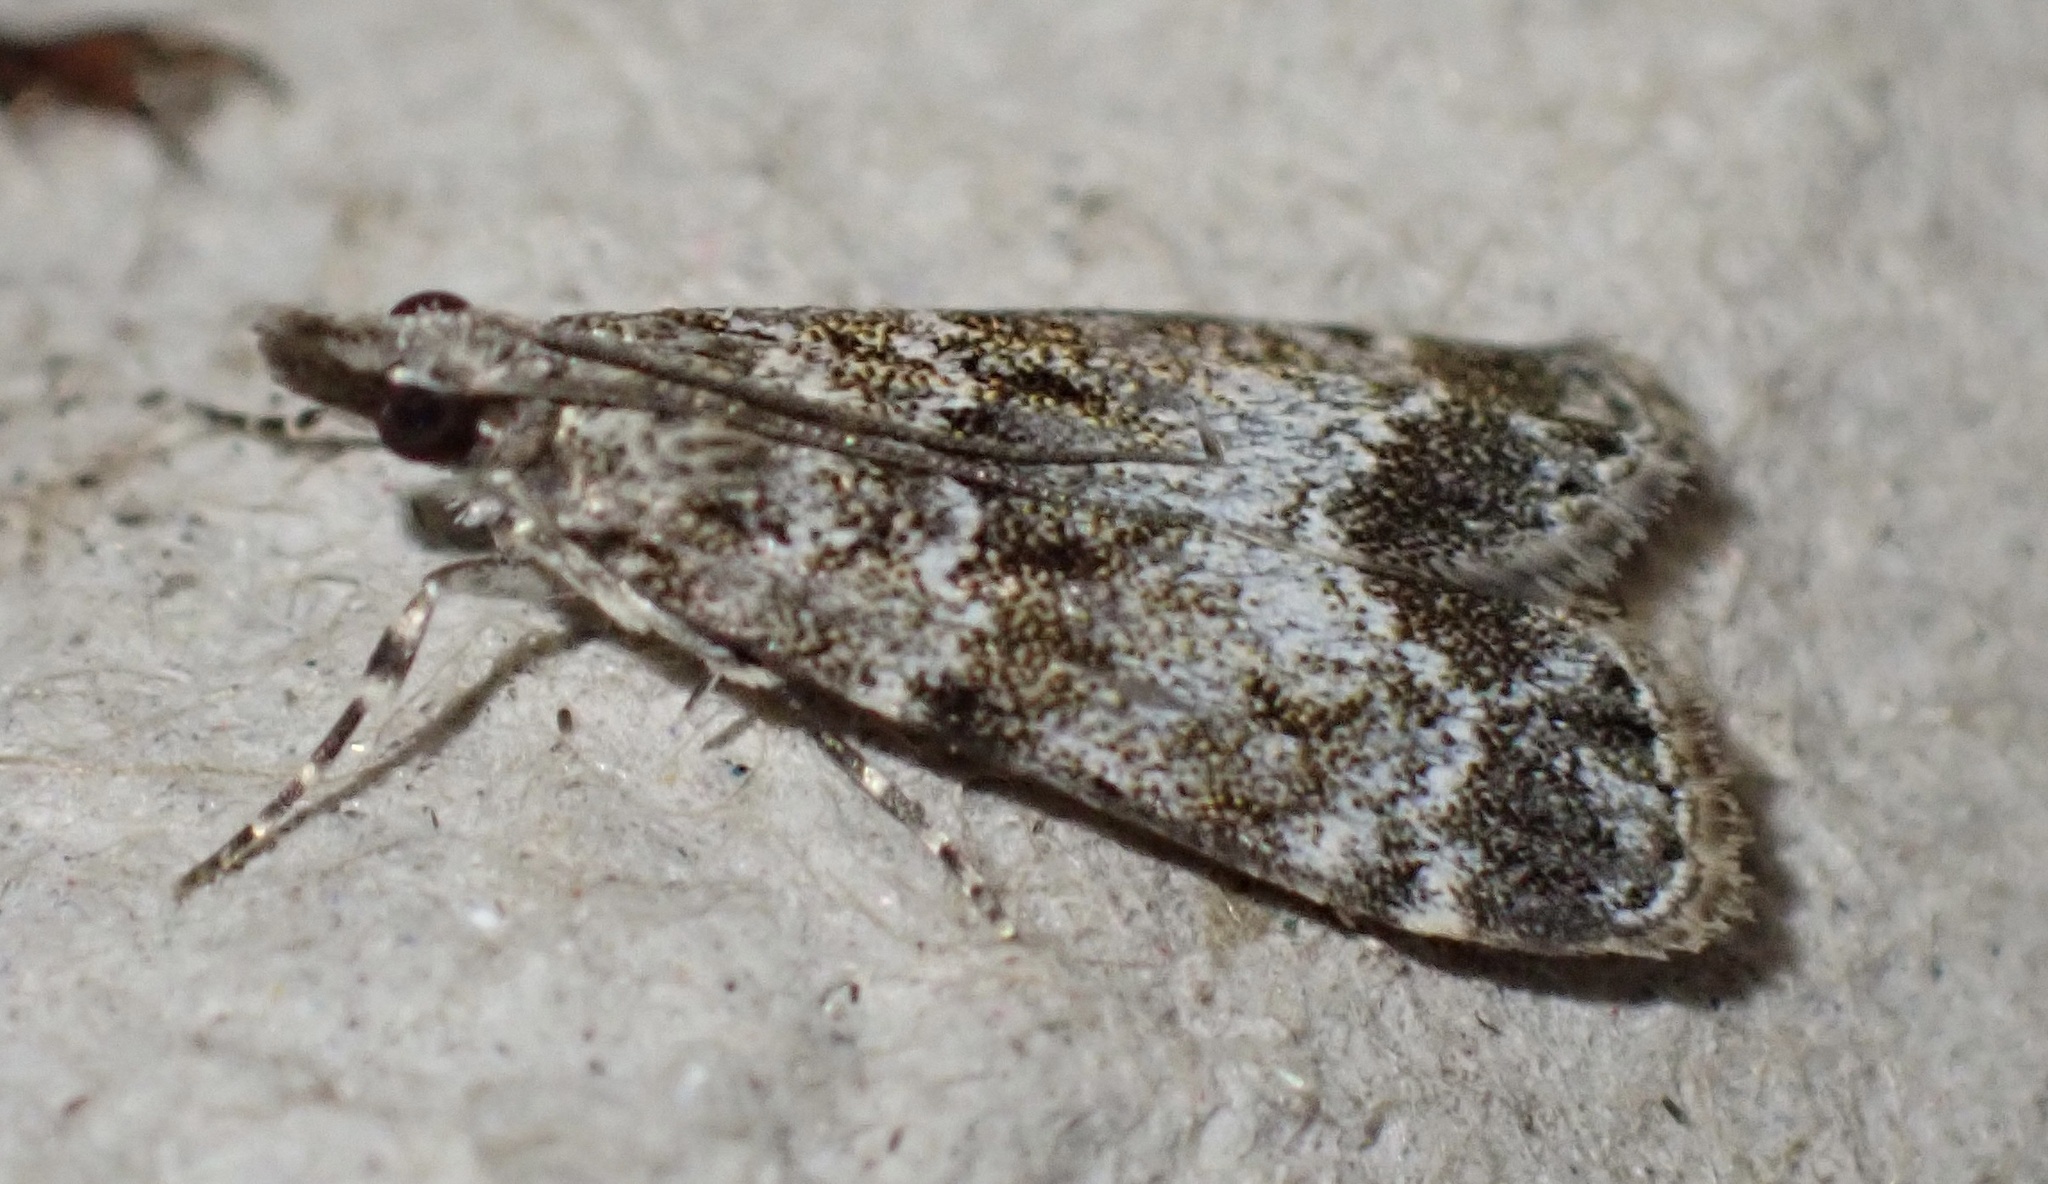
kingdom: Animalia
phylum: Arthropoda
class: Insecta
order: Lepidoptera
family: Crambidae
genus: Eudonia
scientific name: Eudonia mercurella
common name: Small grey
